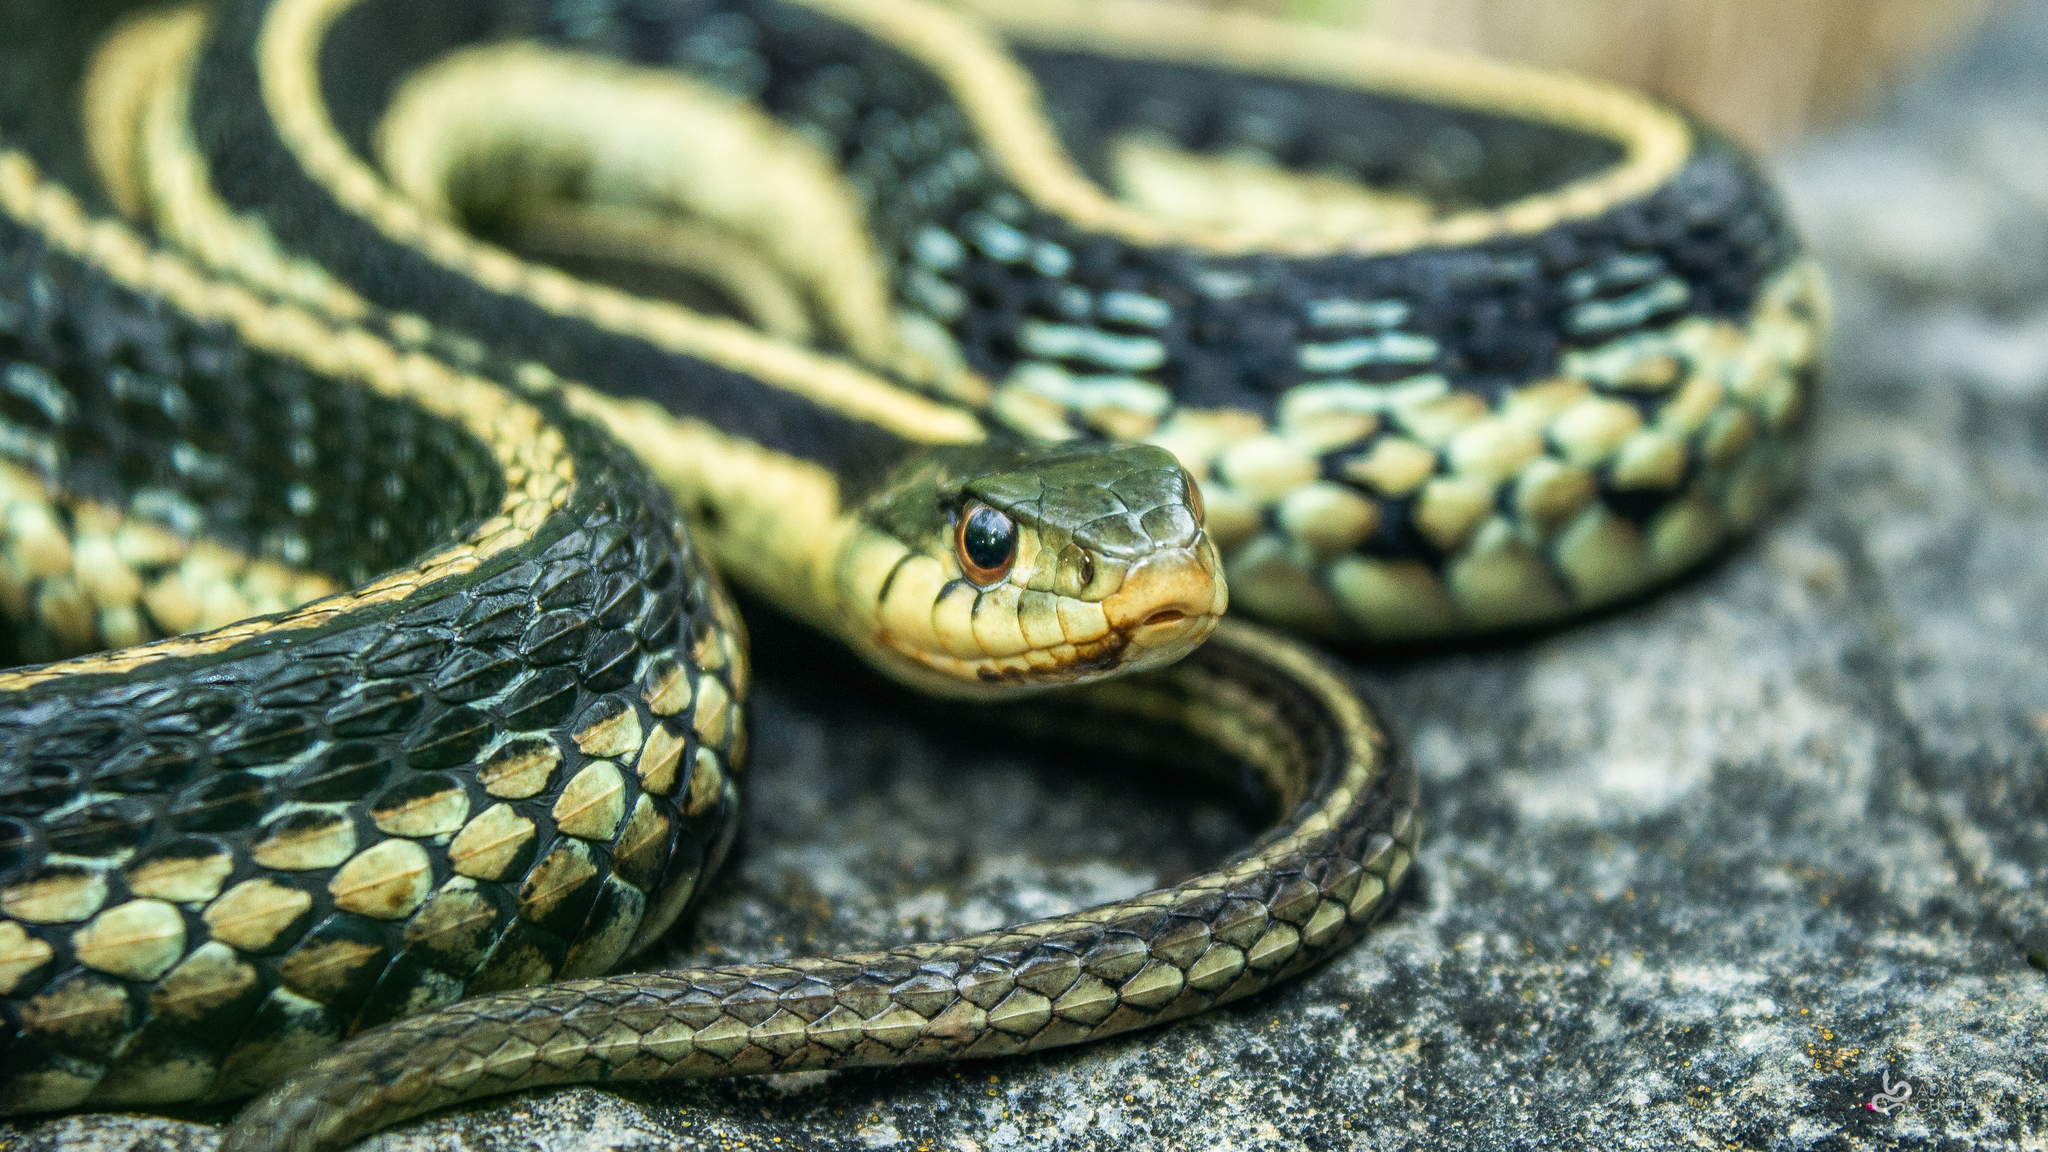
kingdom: Animalia
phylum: Chordata
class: Squamata
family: Colubridae
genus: Thamnophis
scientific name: Thamnophis sirtalis
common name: Common garter snake
